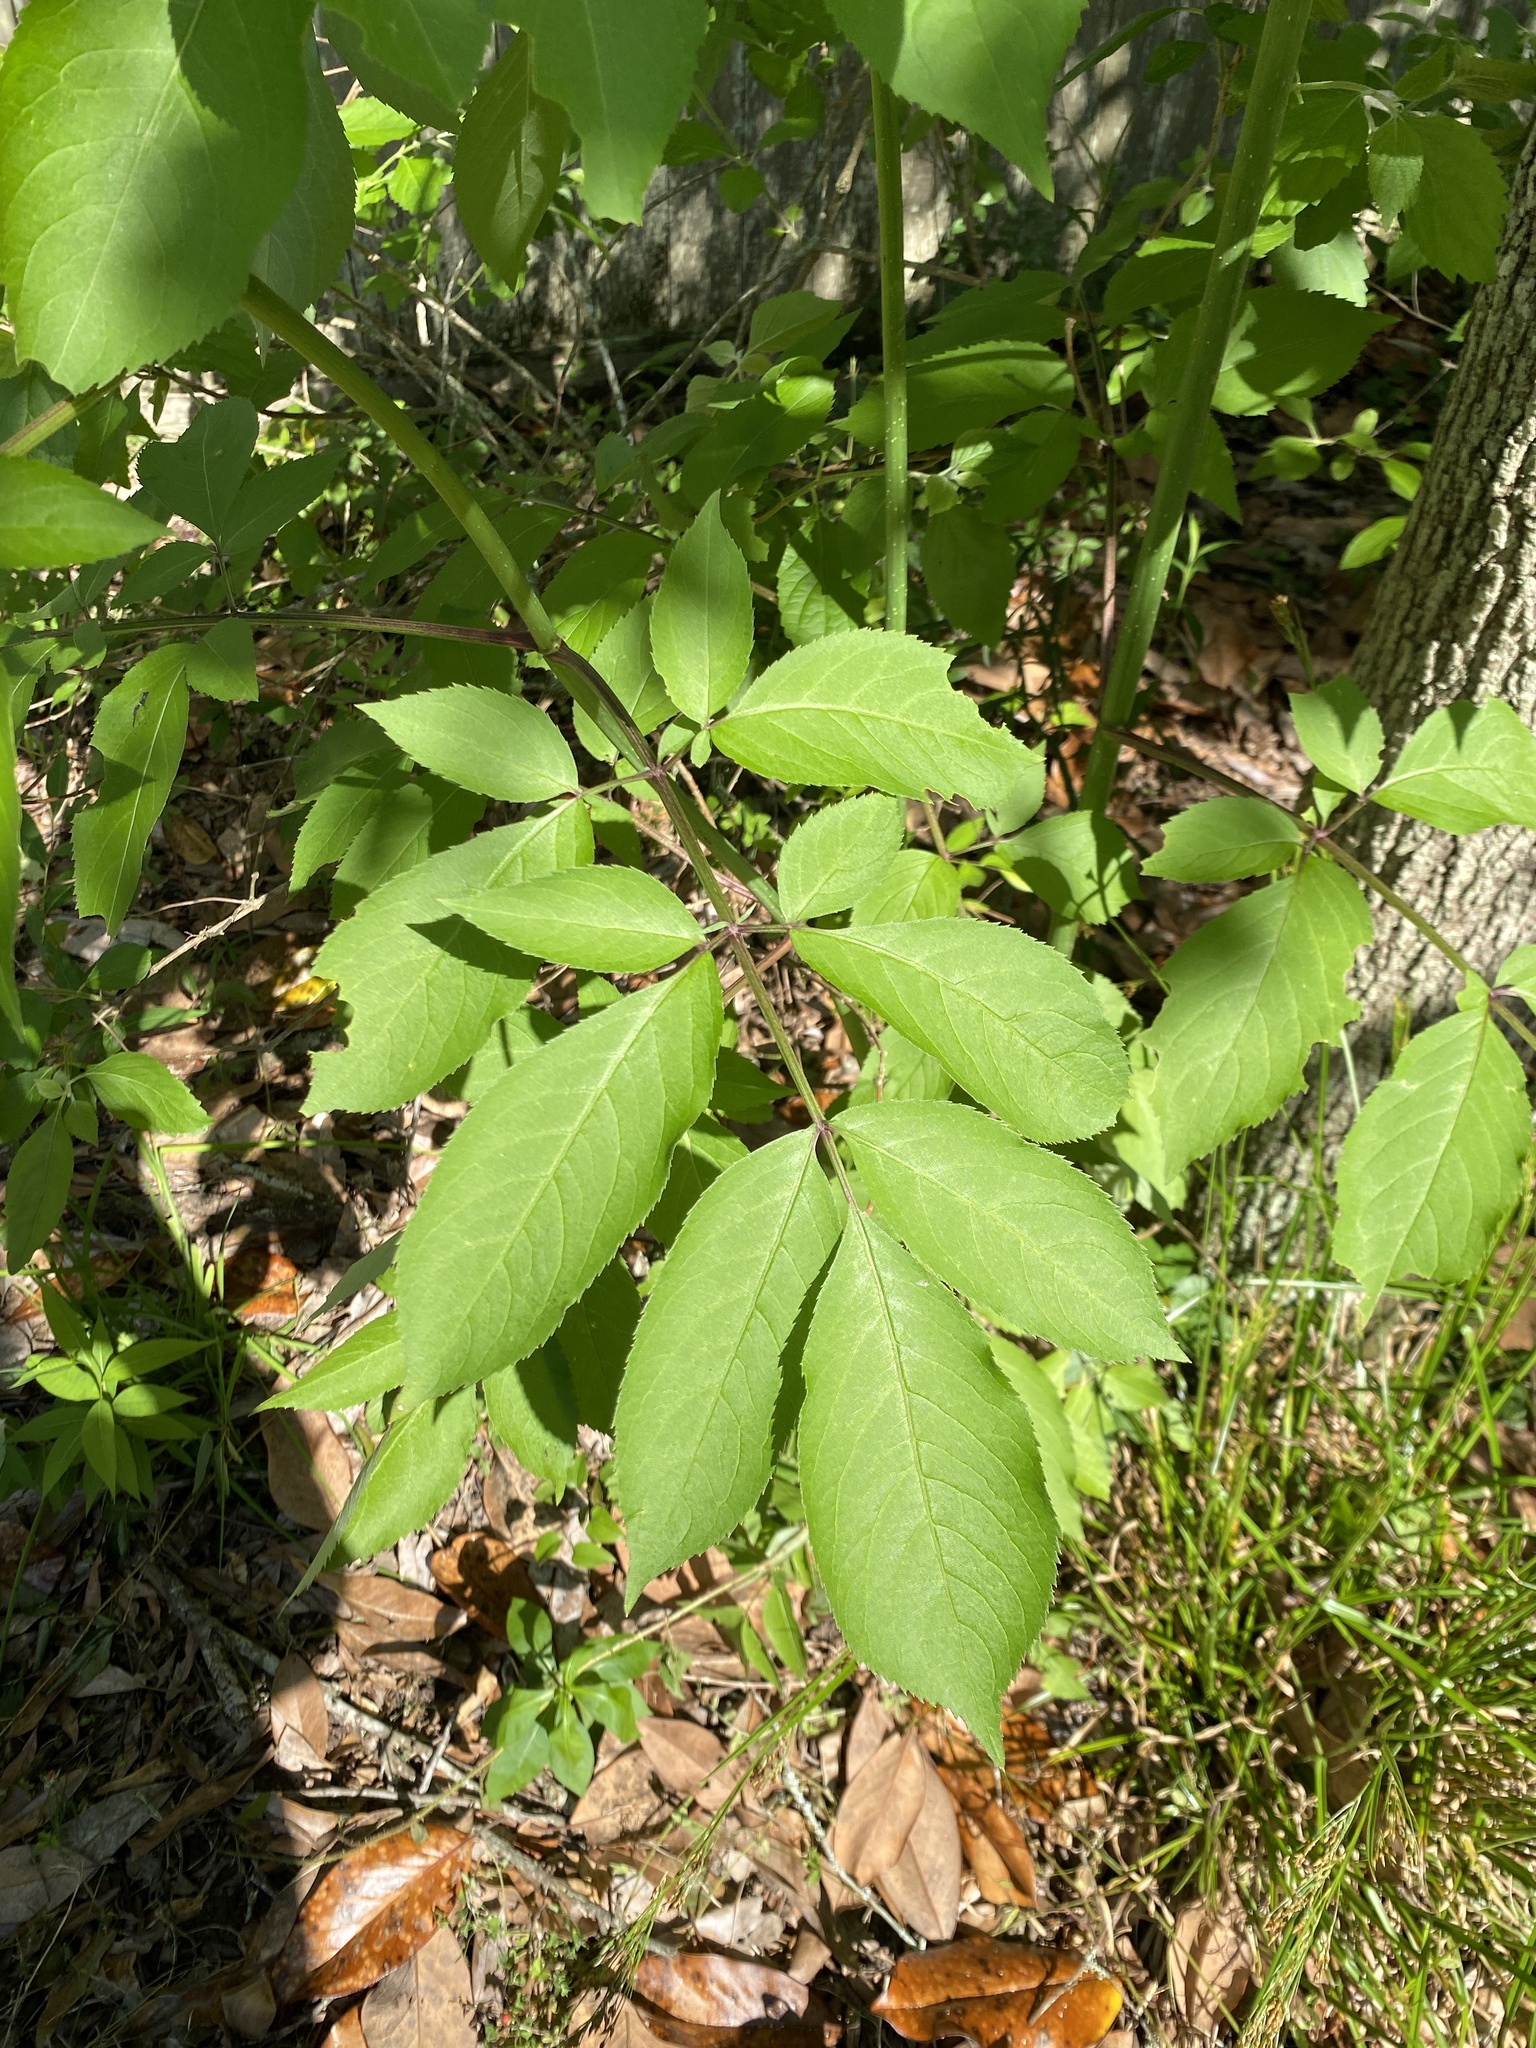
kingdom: Plantae
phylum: Tracheophyta
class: Magnoliopsida
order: Dipsacales
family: Viburnaceae
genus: Sambucus
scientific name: Sambucus canadensis
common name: American elder
